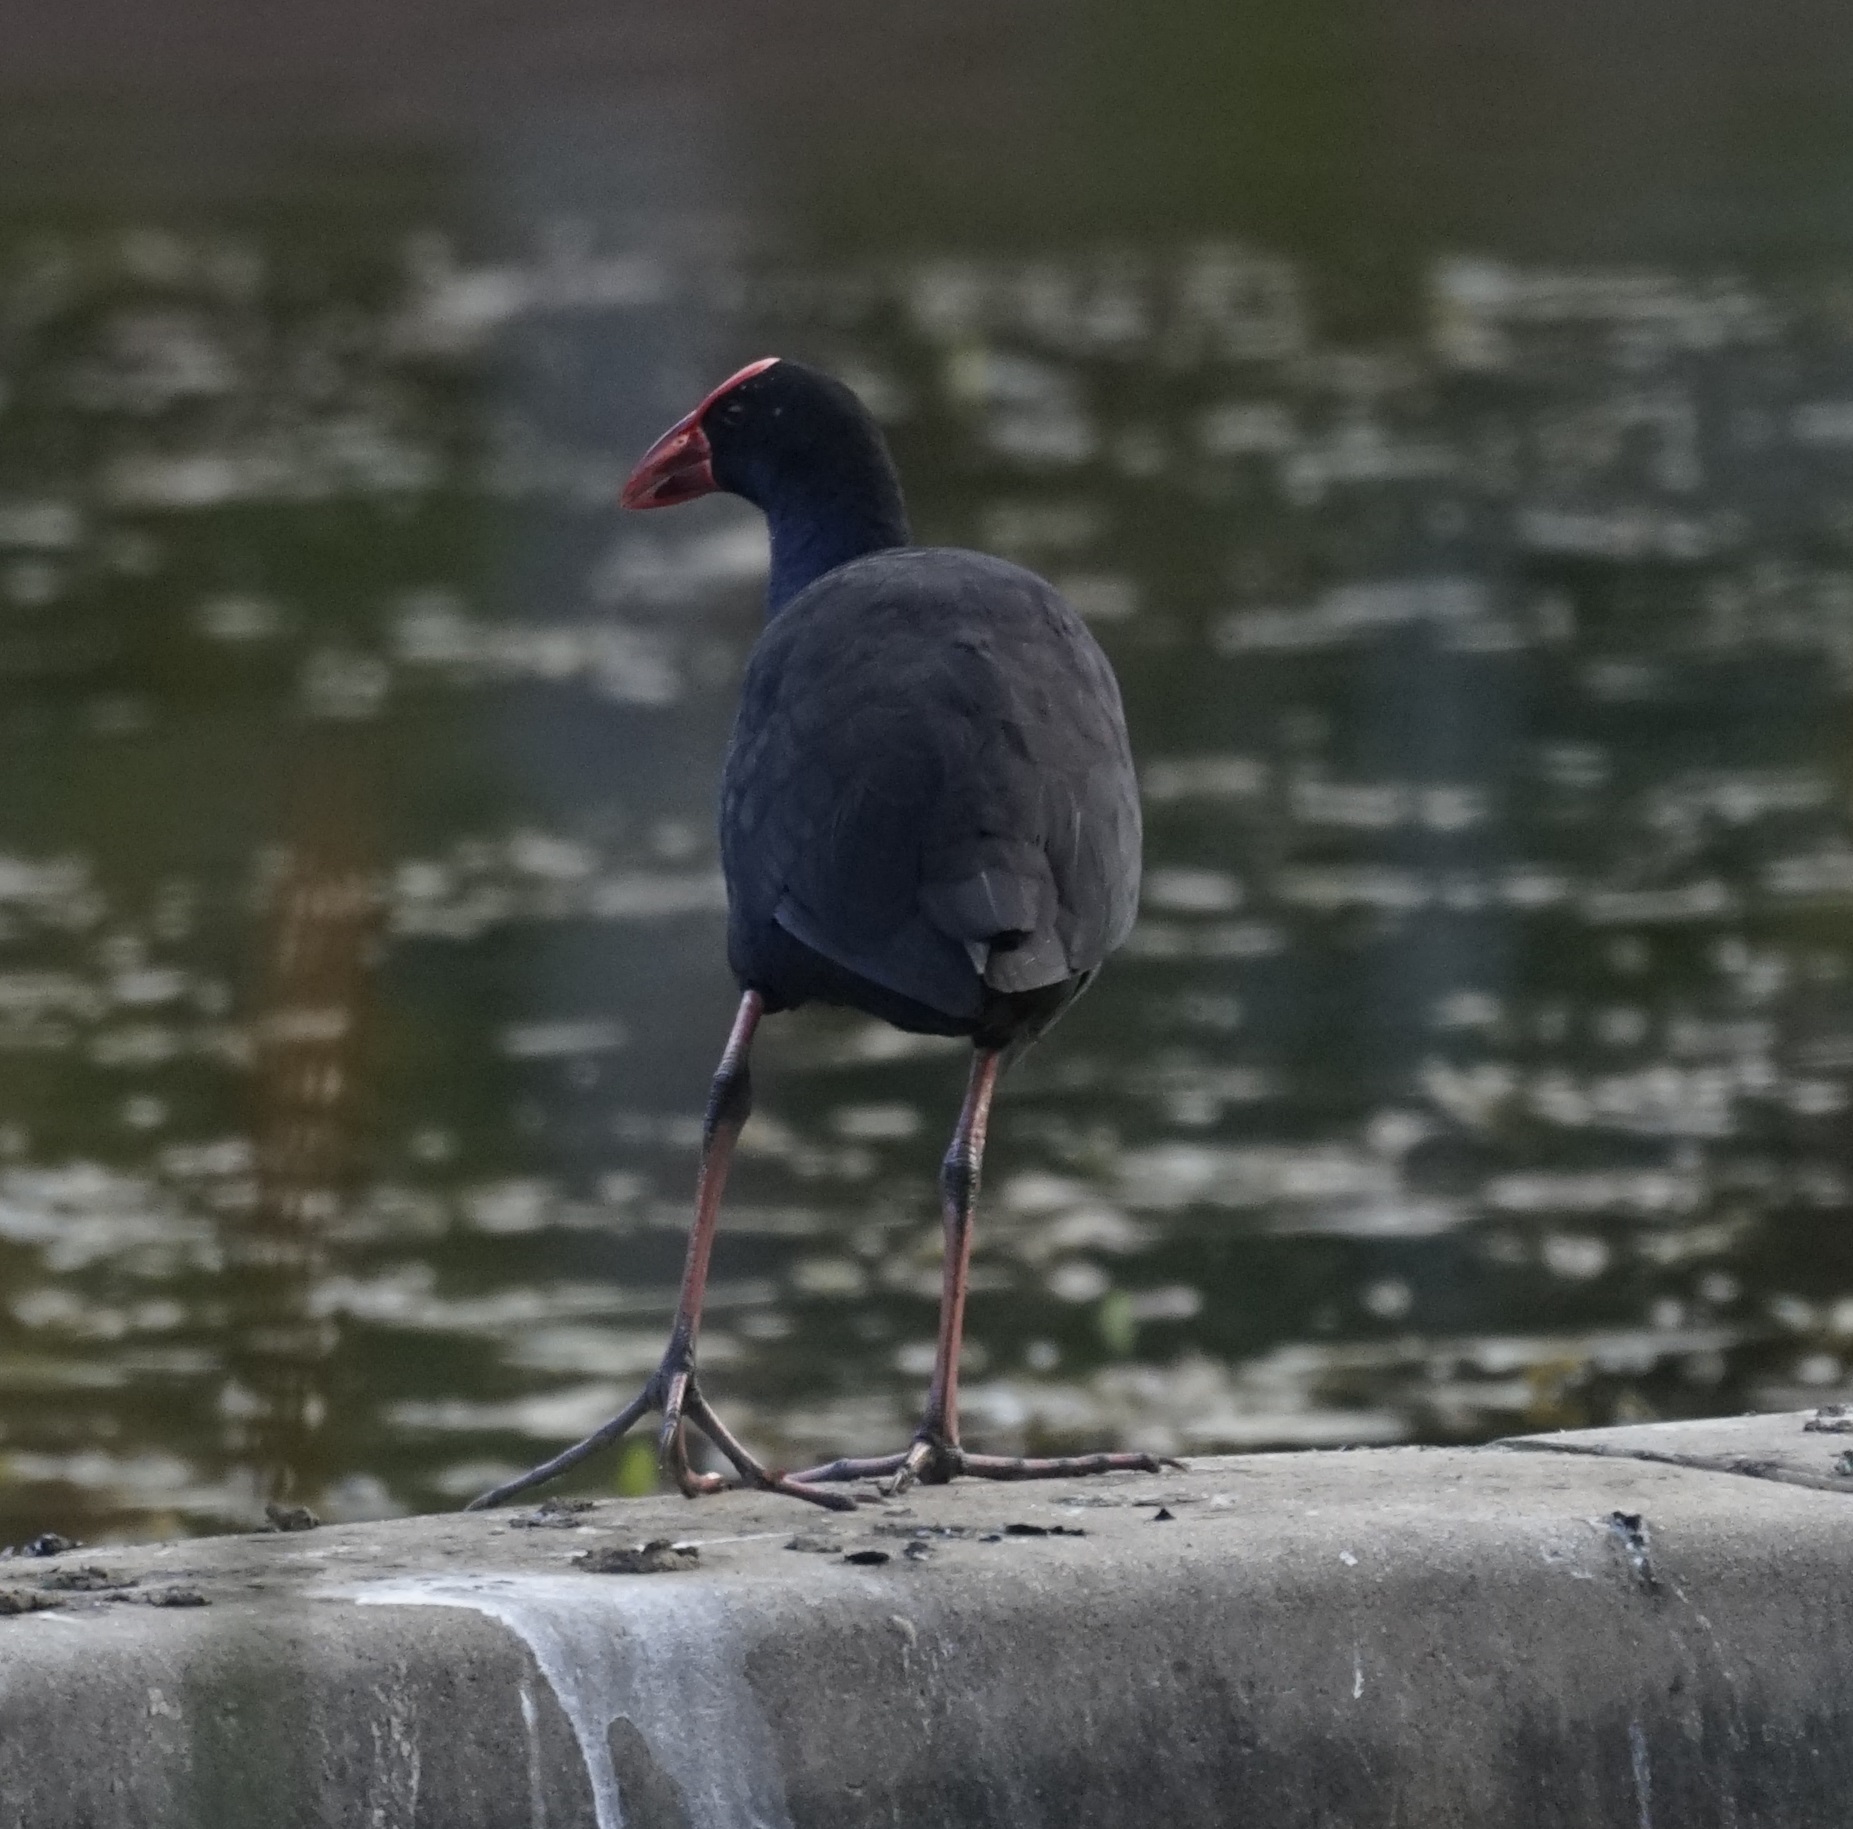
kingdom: Animalia
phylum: Chordata
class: Aves
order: Gruiformes
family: Rallidae
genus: Porphyrio
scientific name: Porphyrio melanotus
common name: Australasian swamphen
